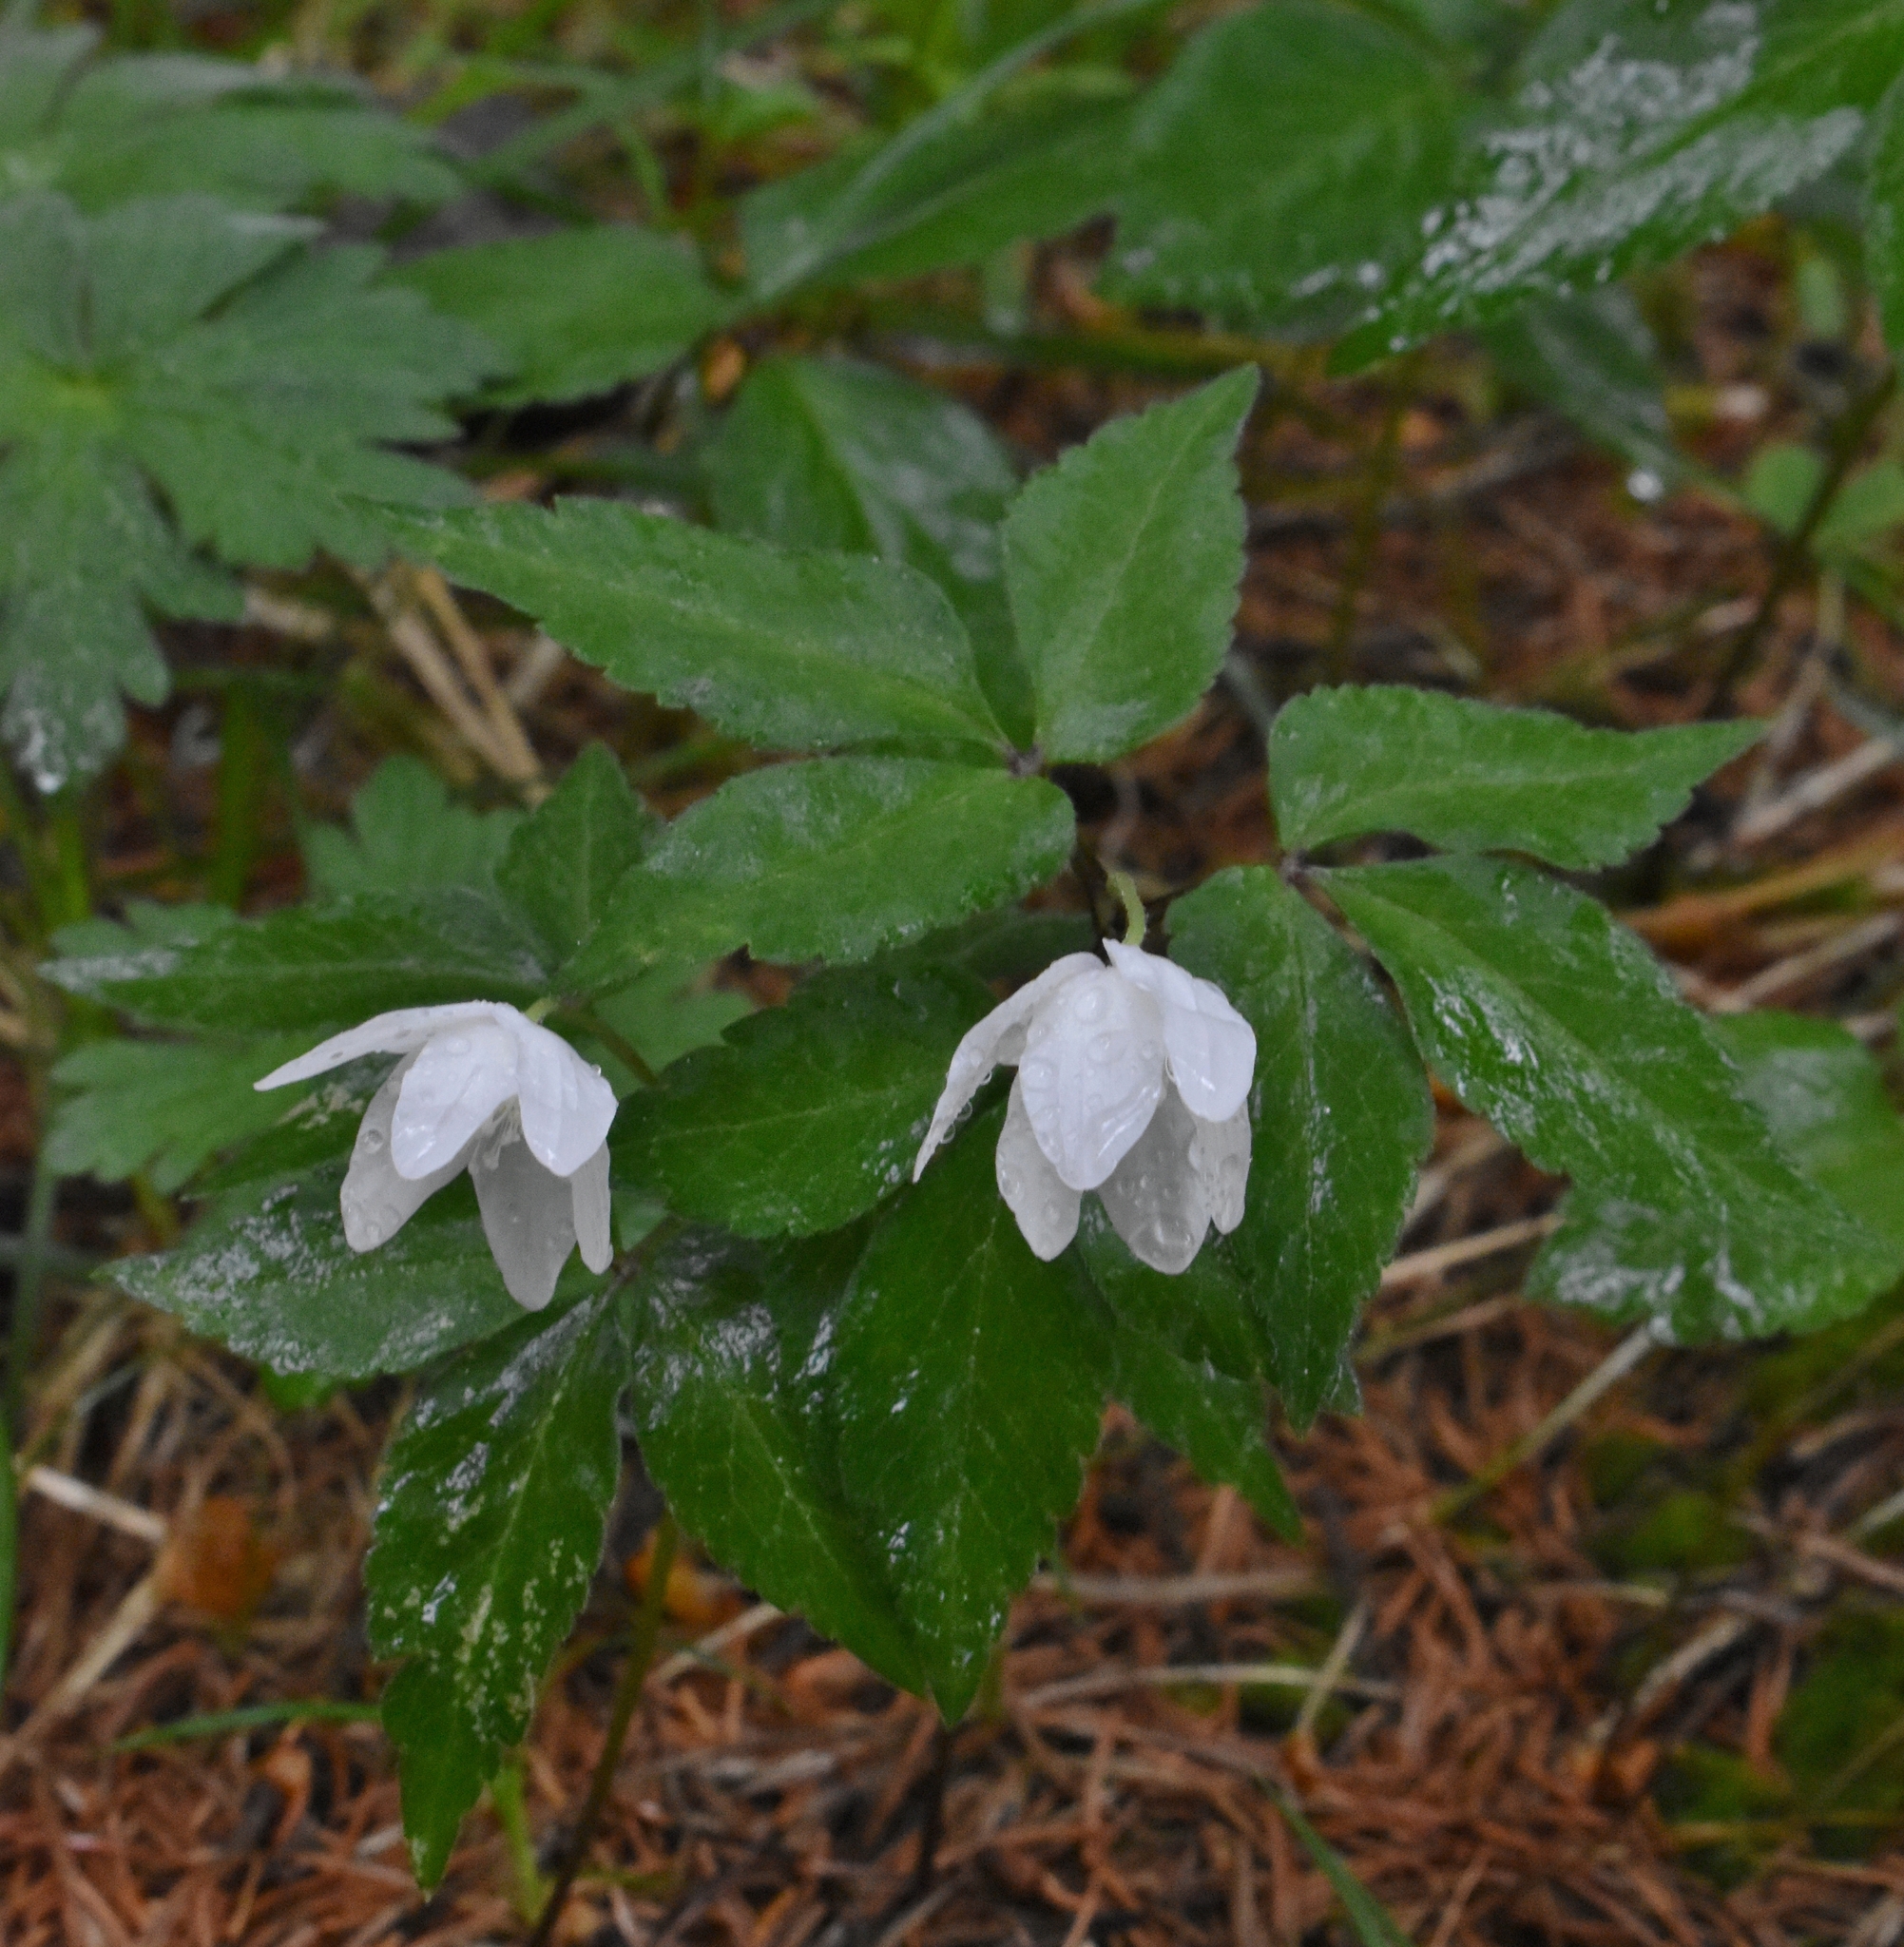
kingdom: Plantae
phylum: Tracheophyta
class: Magnoliopsida
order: Ranunculales
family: Ranunculaceae
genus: Anemone
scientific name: Anemone trifolia
